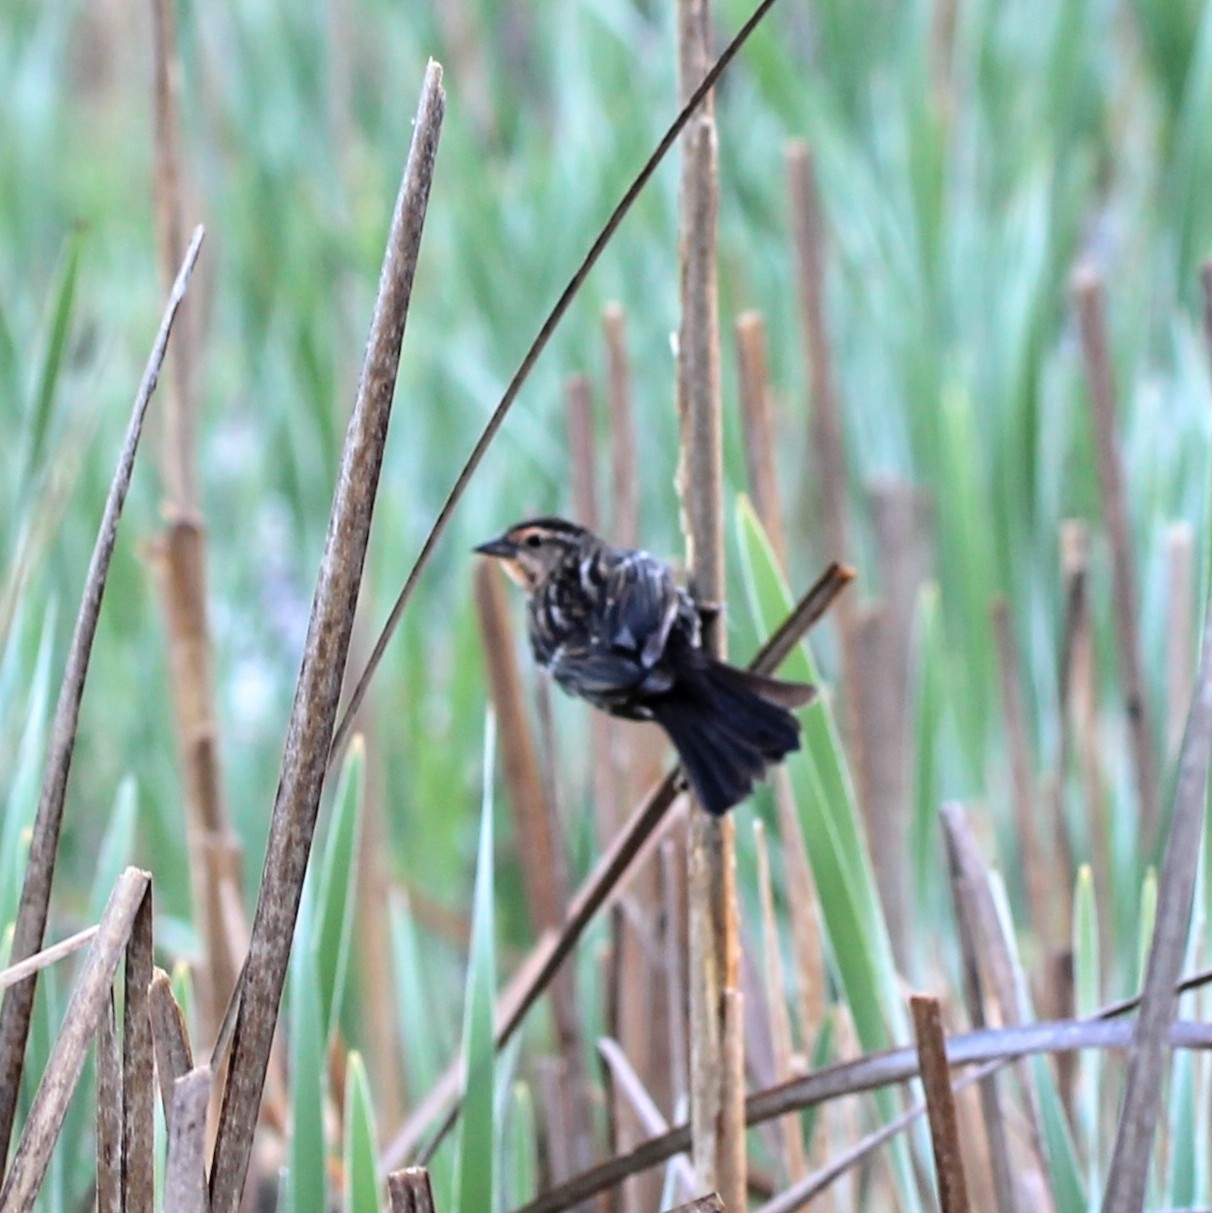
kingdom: Animalia
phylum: Chordata
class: Aves
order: Passeriformes
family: Icteridae
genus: Agelaius
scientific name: Agelaius phoeniceus
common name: Red-winged blackbird
